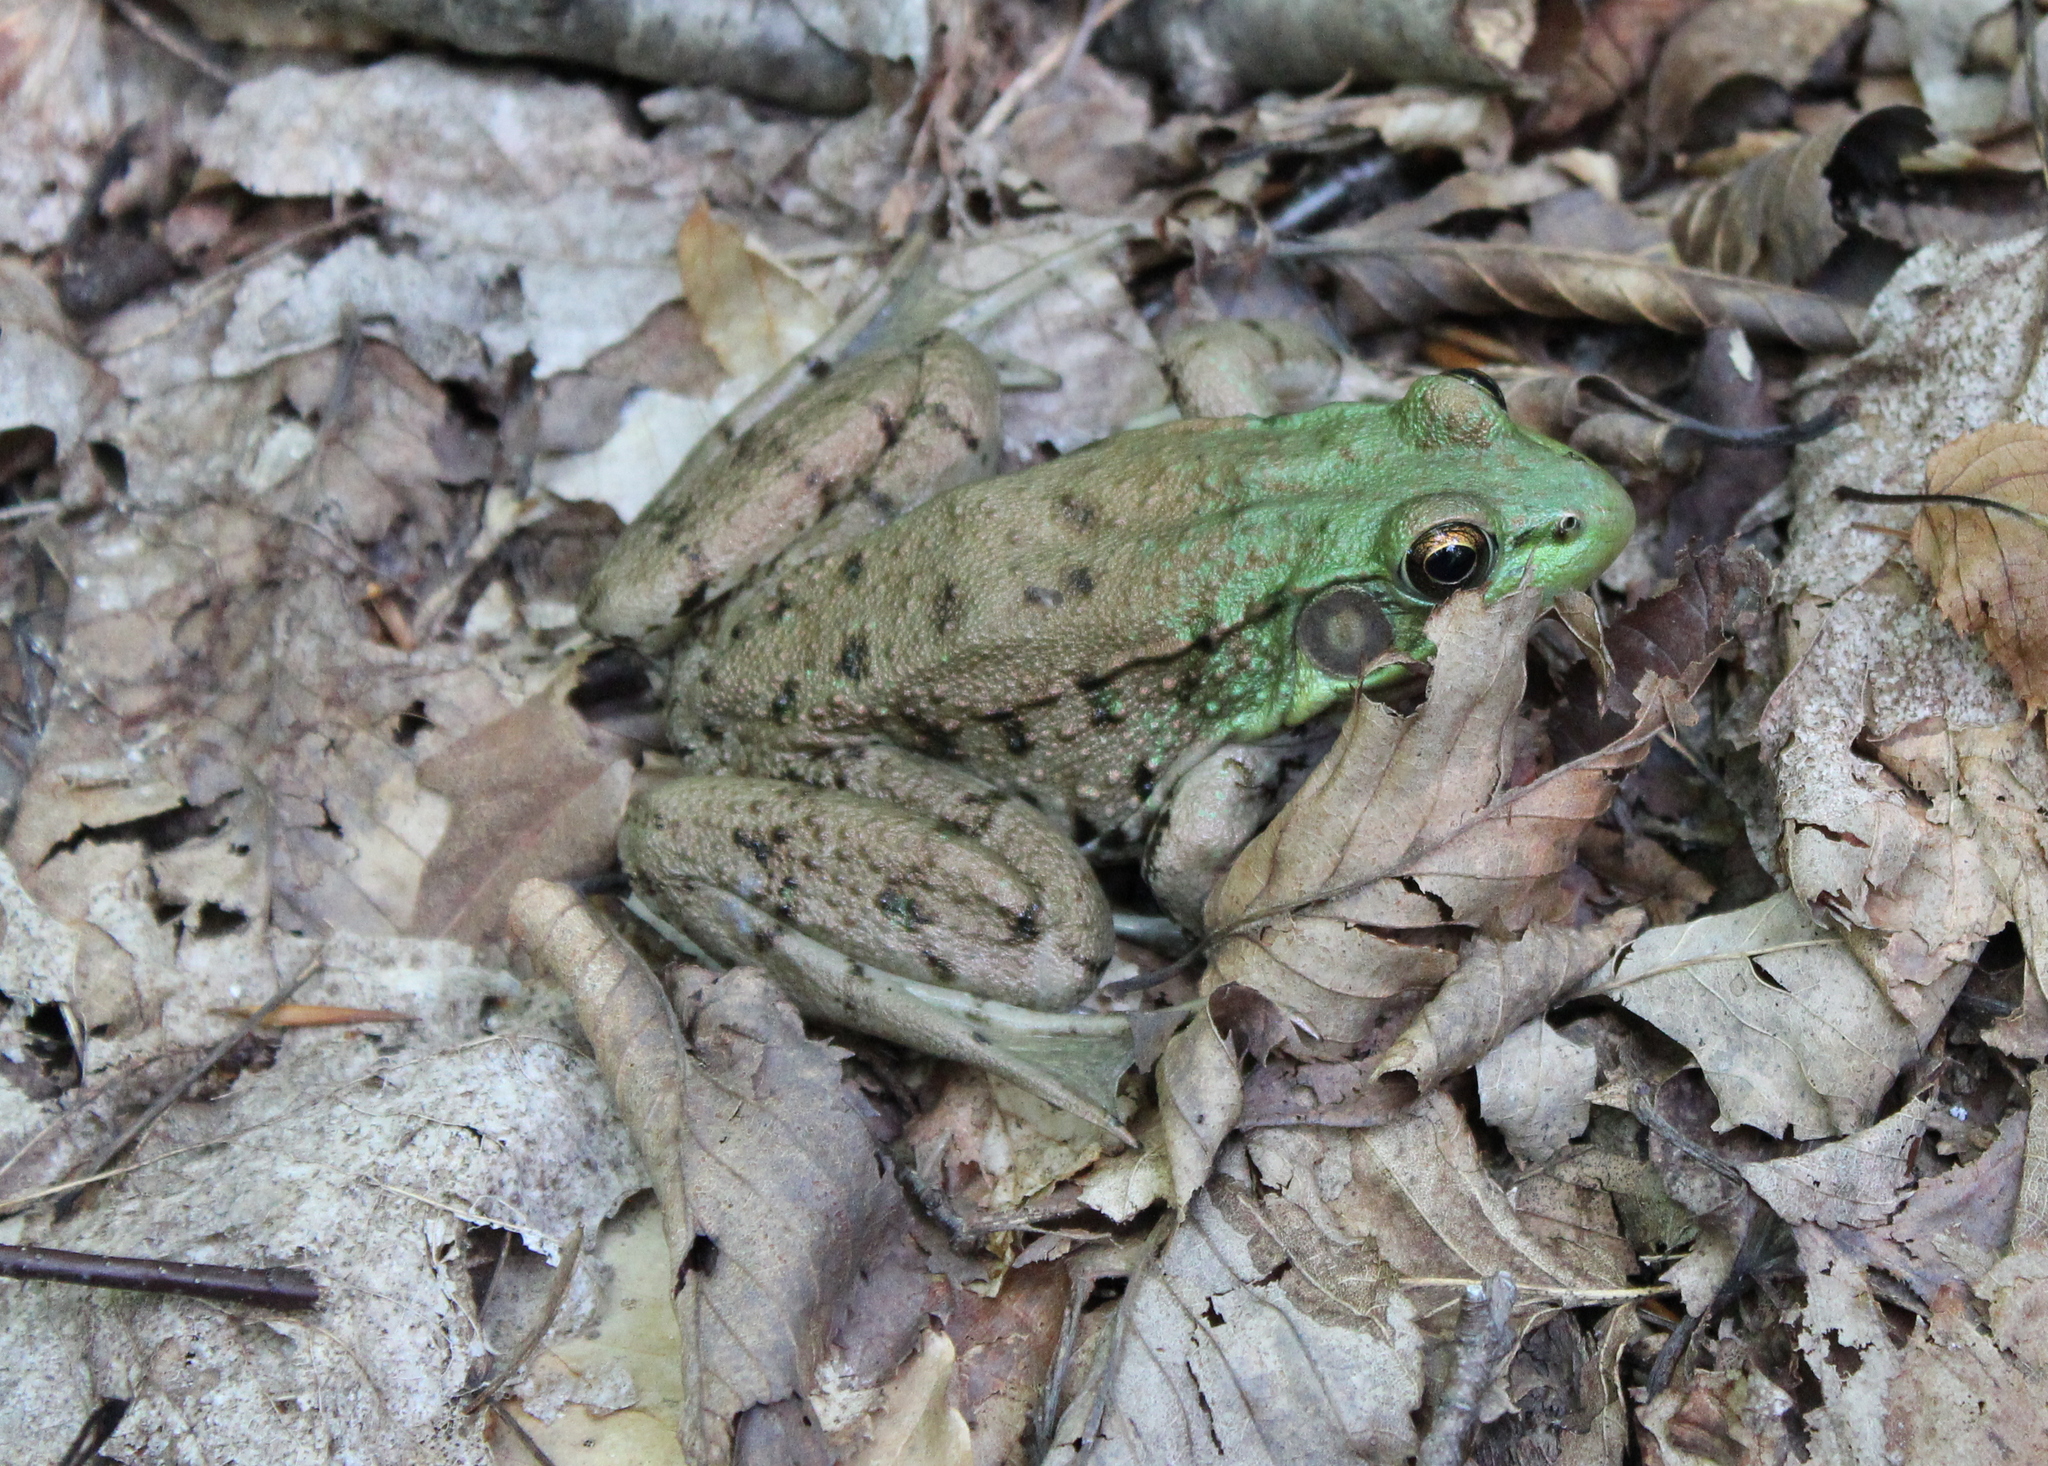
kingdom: Animalia
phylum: Chordata
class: Amphibia
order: Anura
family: Ranidae
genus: Lithobates
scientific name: Lithobates clamitans
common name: Green frog
